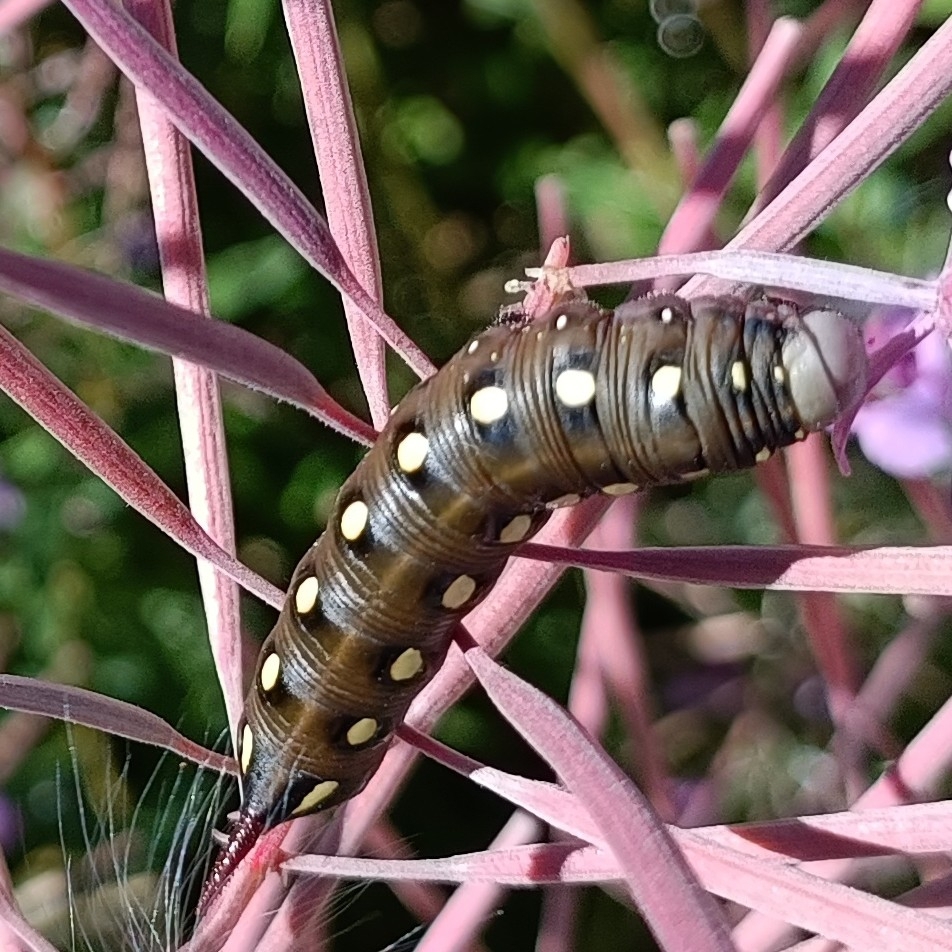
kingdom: Animalia
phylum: Arthropoda
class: Insecta
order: Lepidoptera
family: Sphingidae
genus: Hyles
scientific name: Hyles gallii
